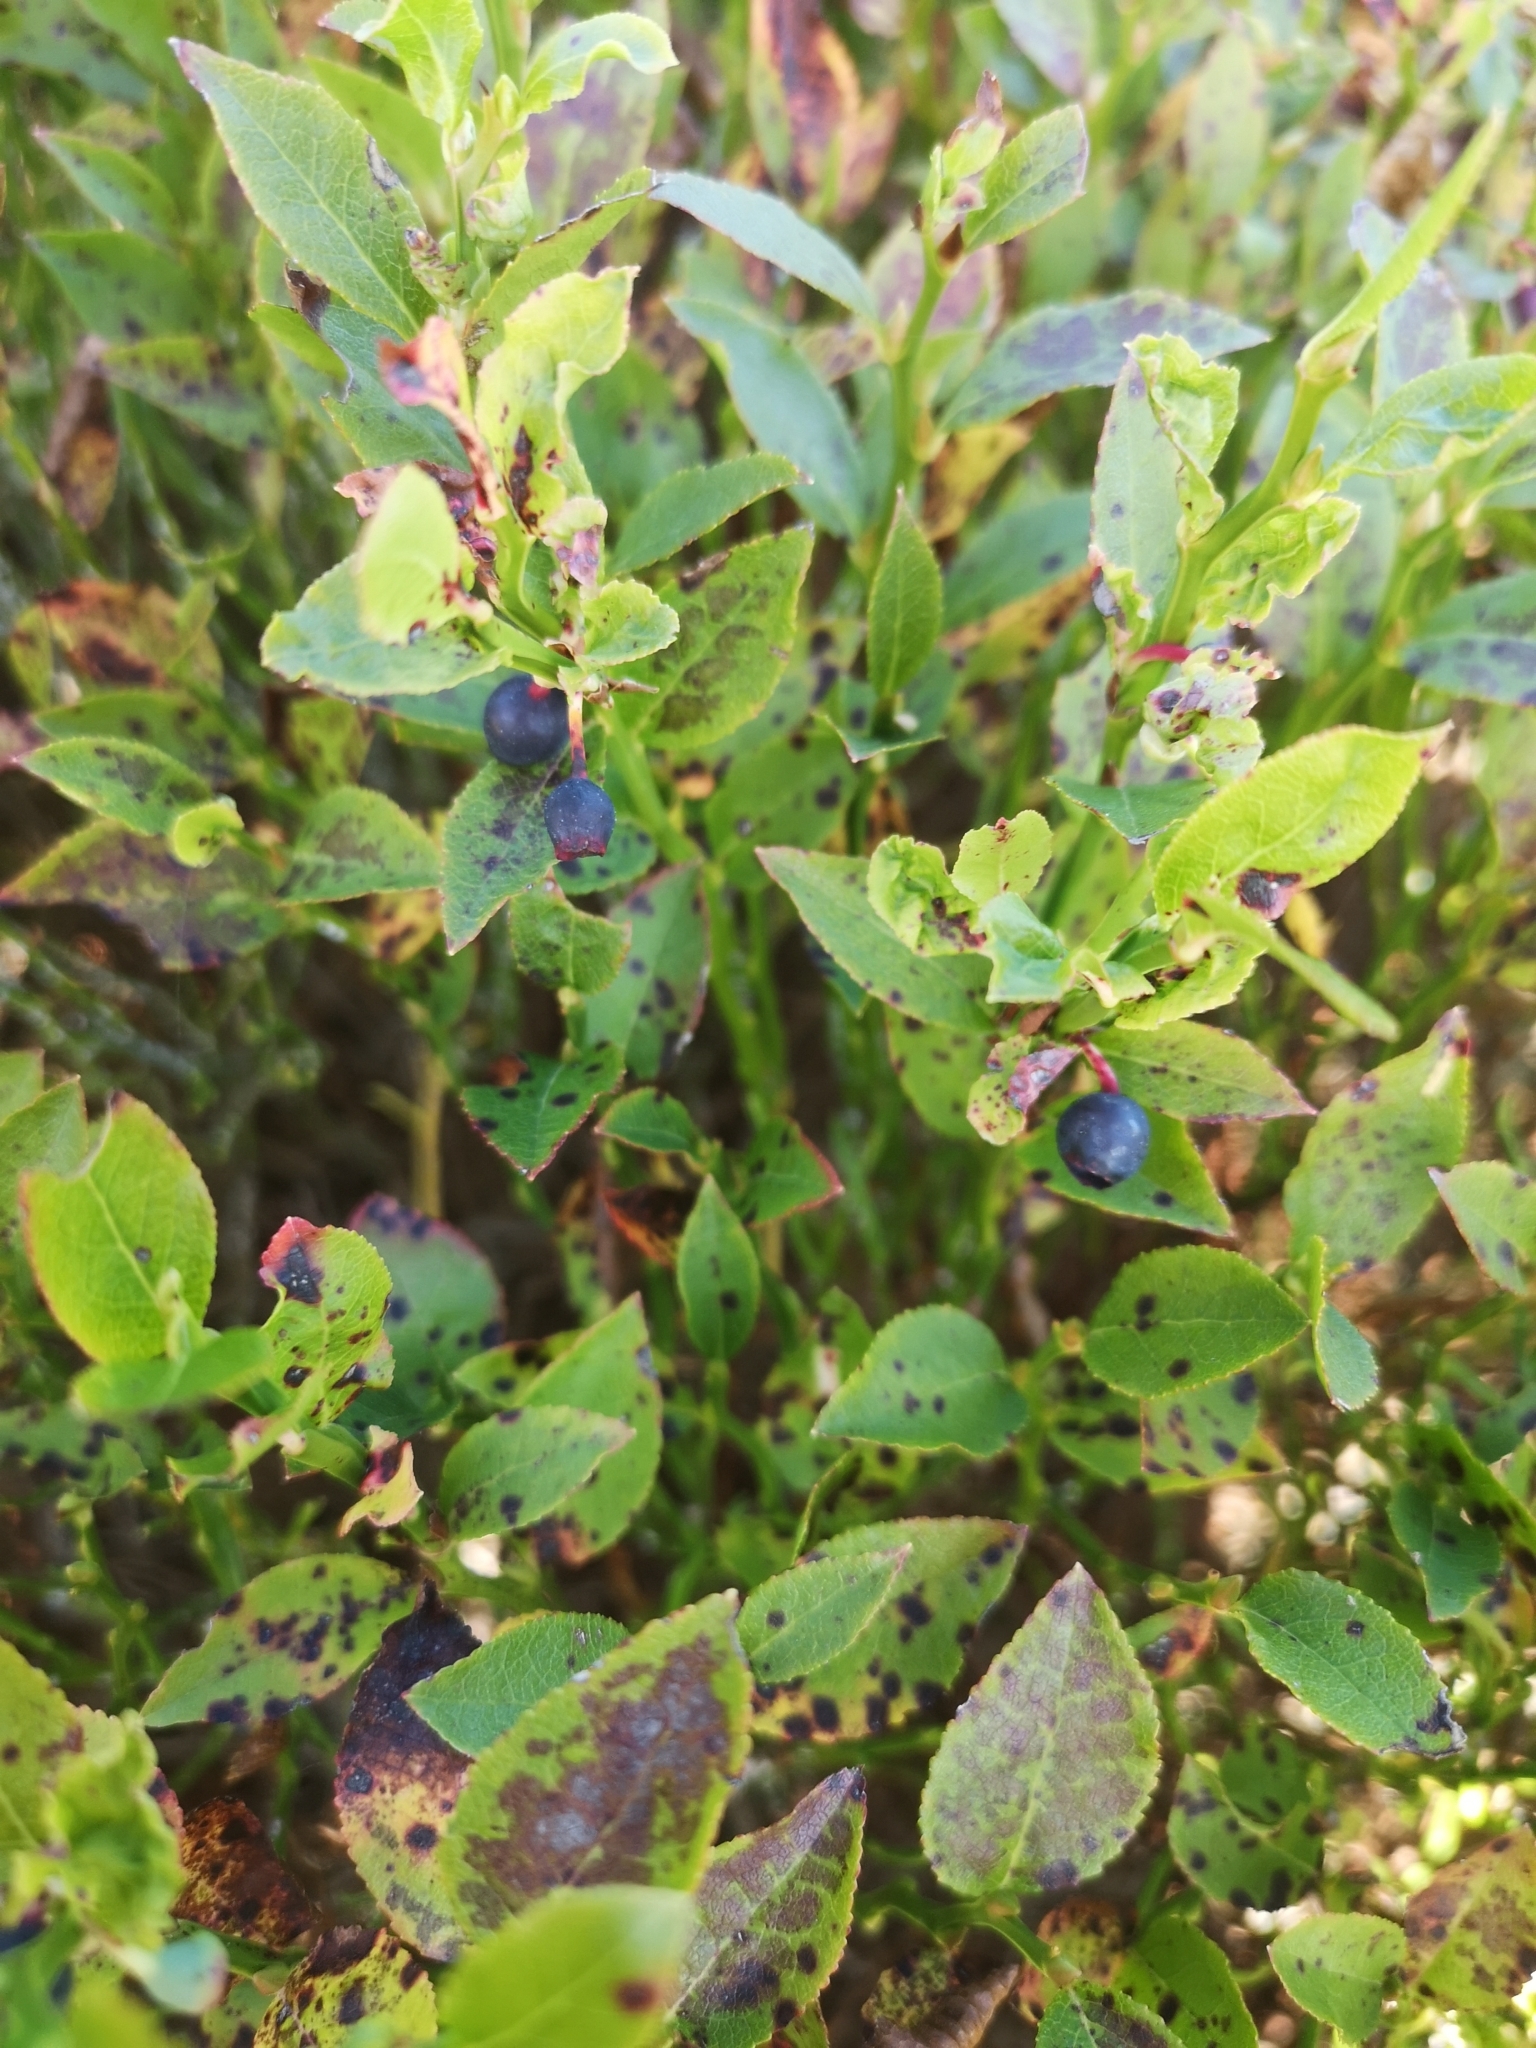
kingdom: Plantae
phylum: Tracheophyta
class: Magnoliopsida
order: Ericales
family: Ericaceae
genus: Vaccinium
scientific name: Vaccinium myrtillus
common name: Bilberry
